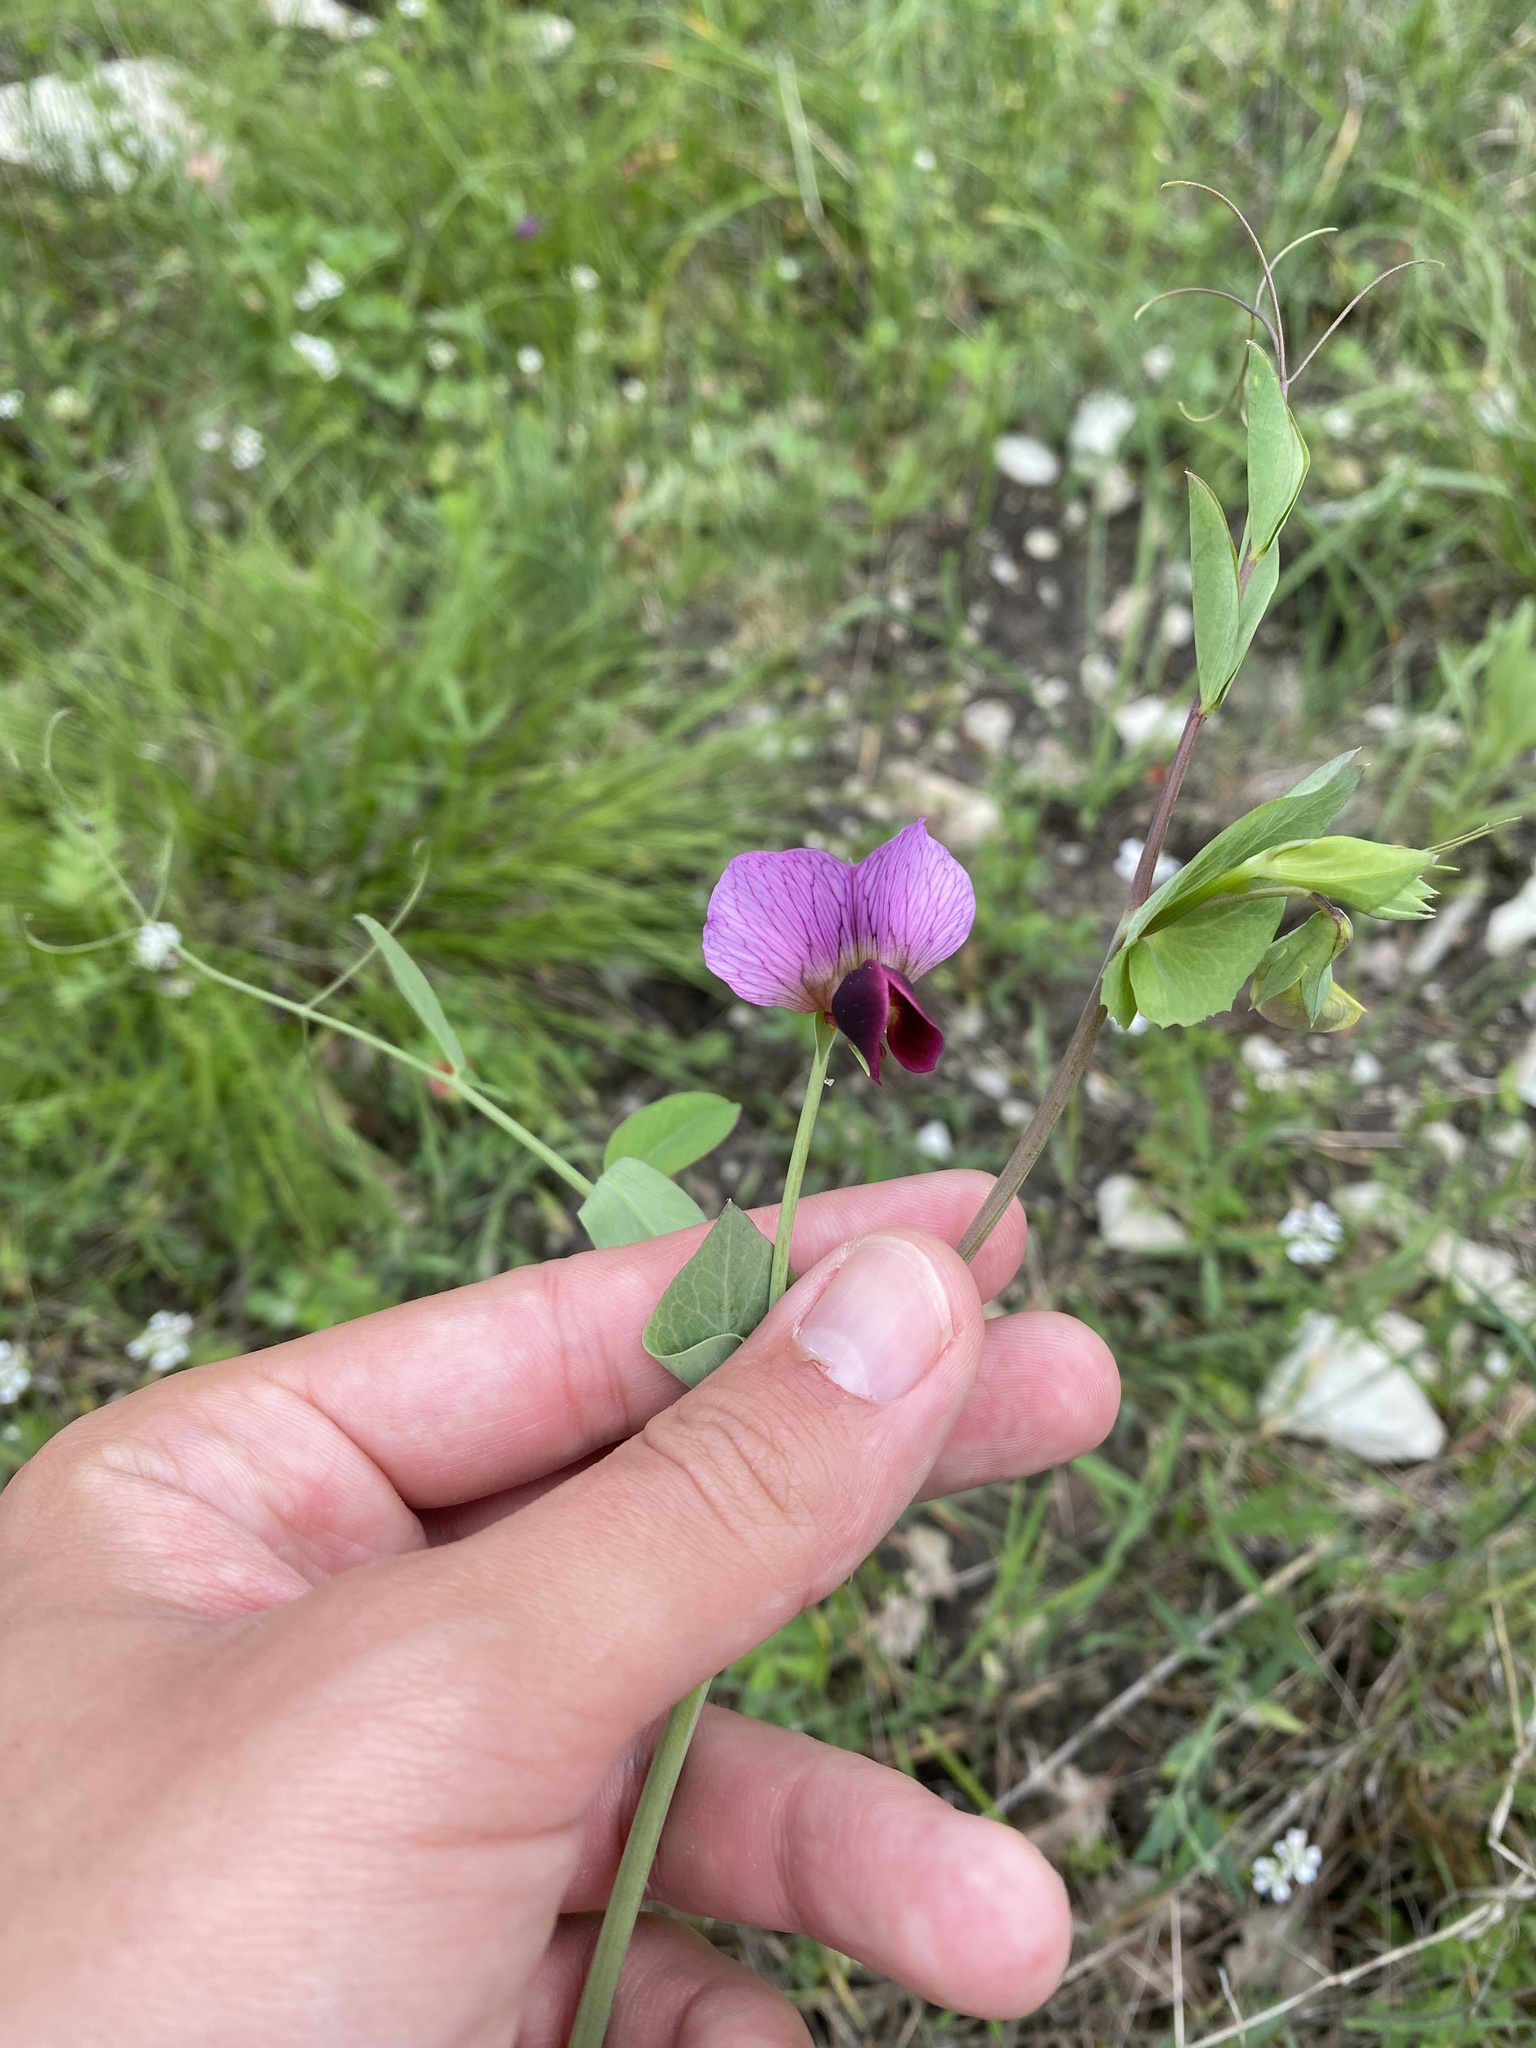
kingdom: Plantae
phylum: Tracheophyta
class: Magnoliopsida
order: Fabales
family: Fabaceae
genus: Lathyrus
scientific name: Lathyrus oleraceus
